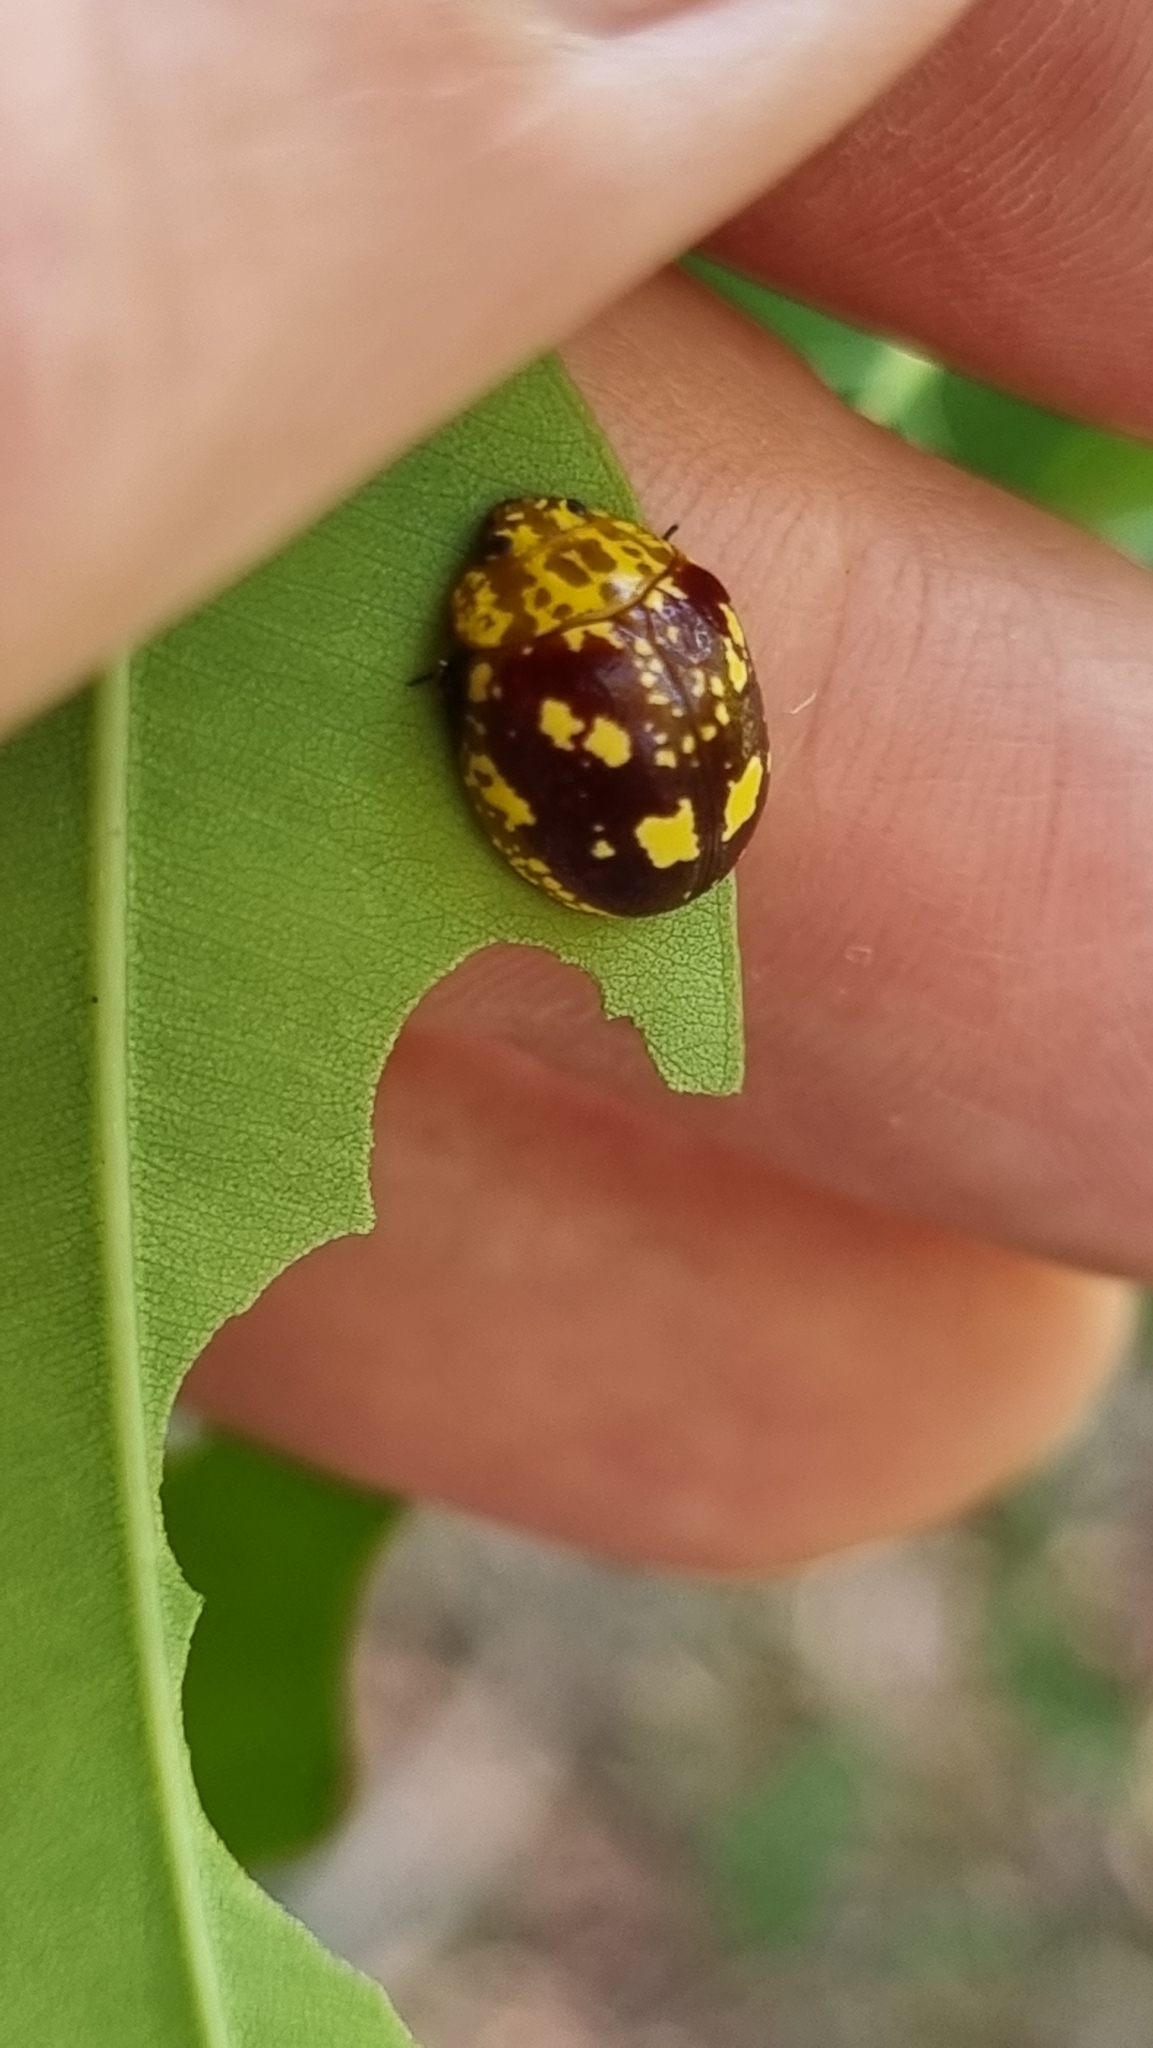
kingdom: Animalia
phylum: Arthropoda
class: Insecta
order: Coleoptera
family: Chrysomelidae
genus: Paropsis
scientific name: Paropsis maculata
